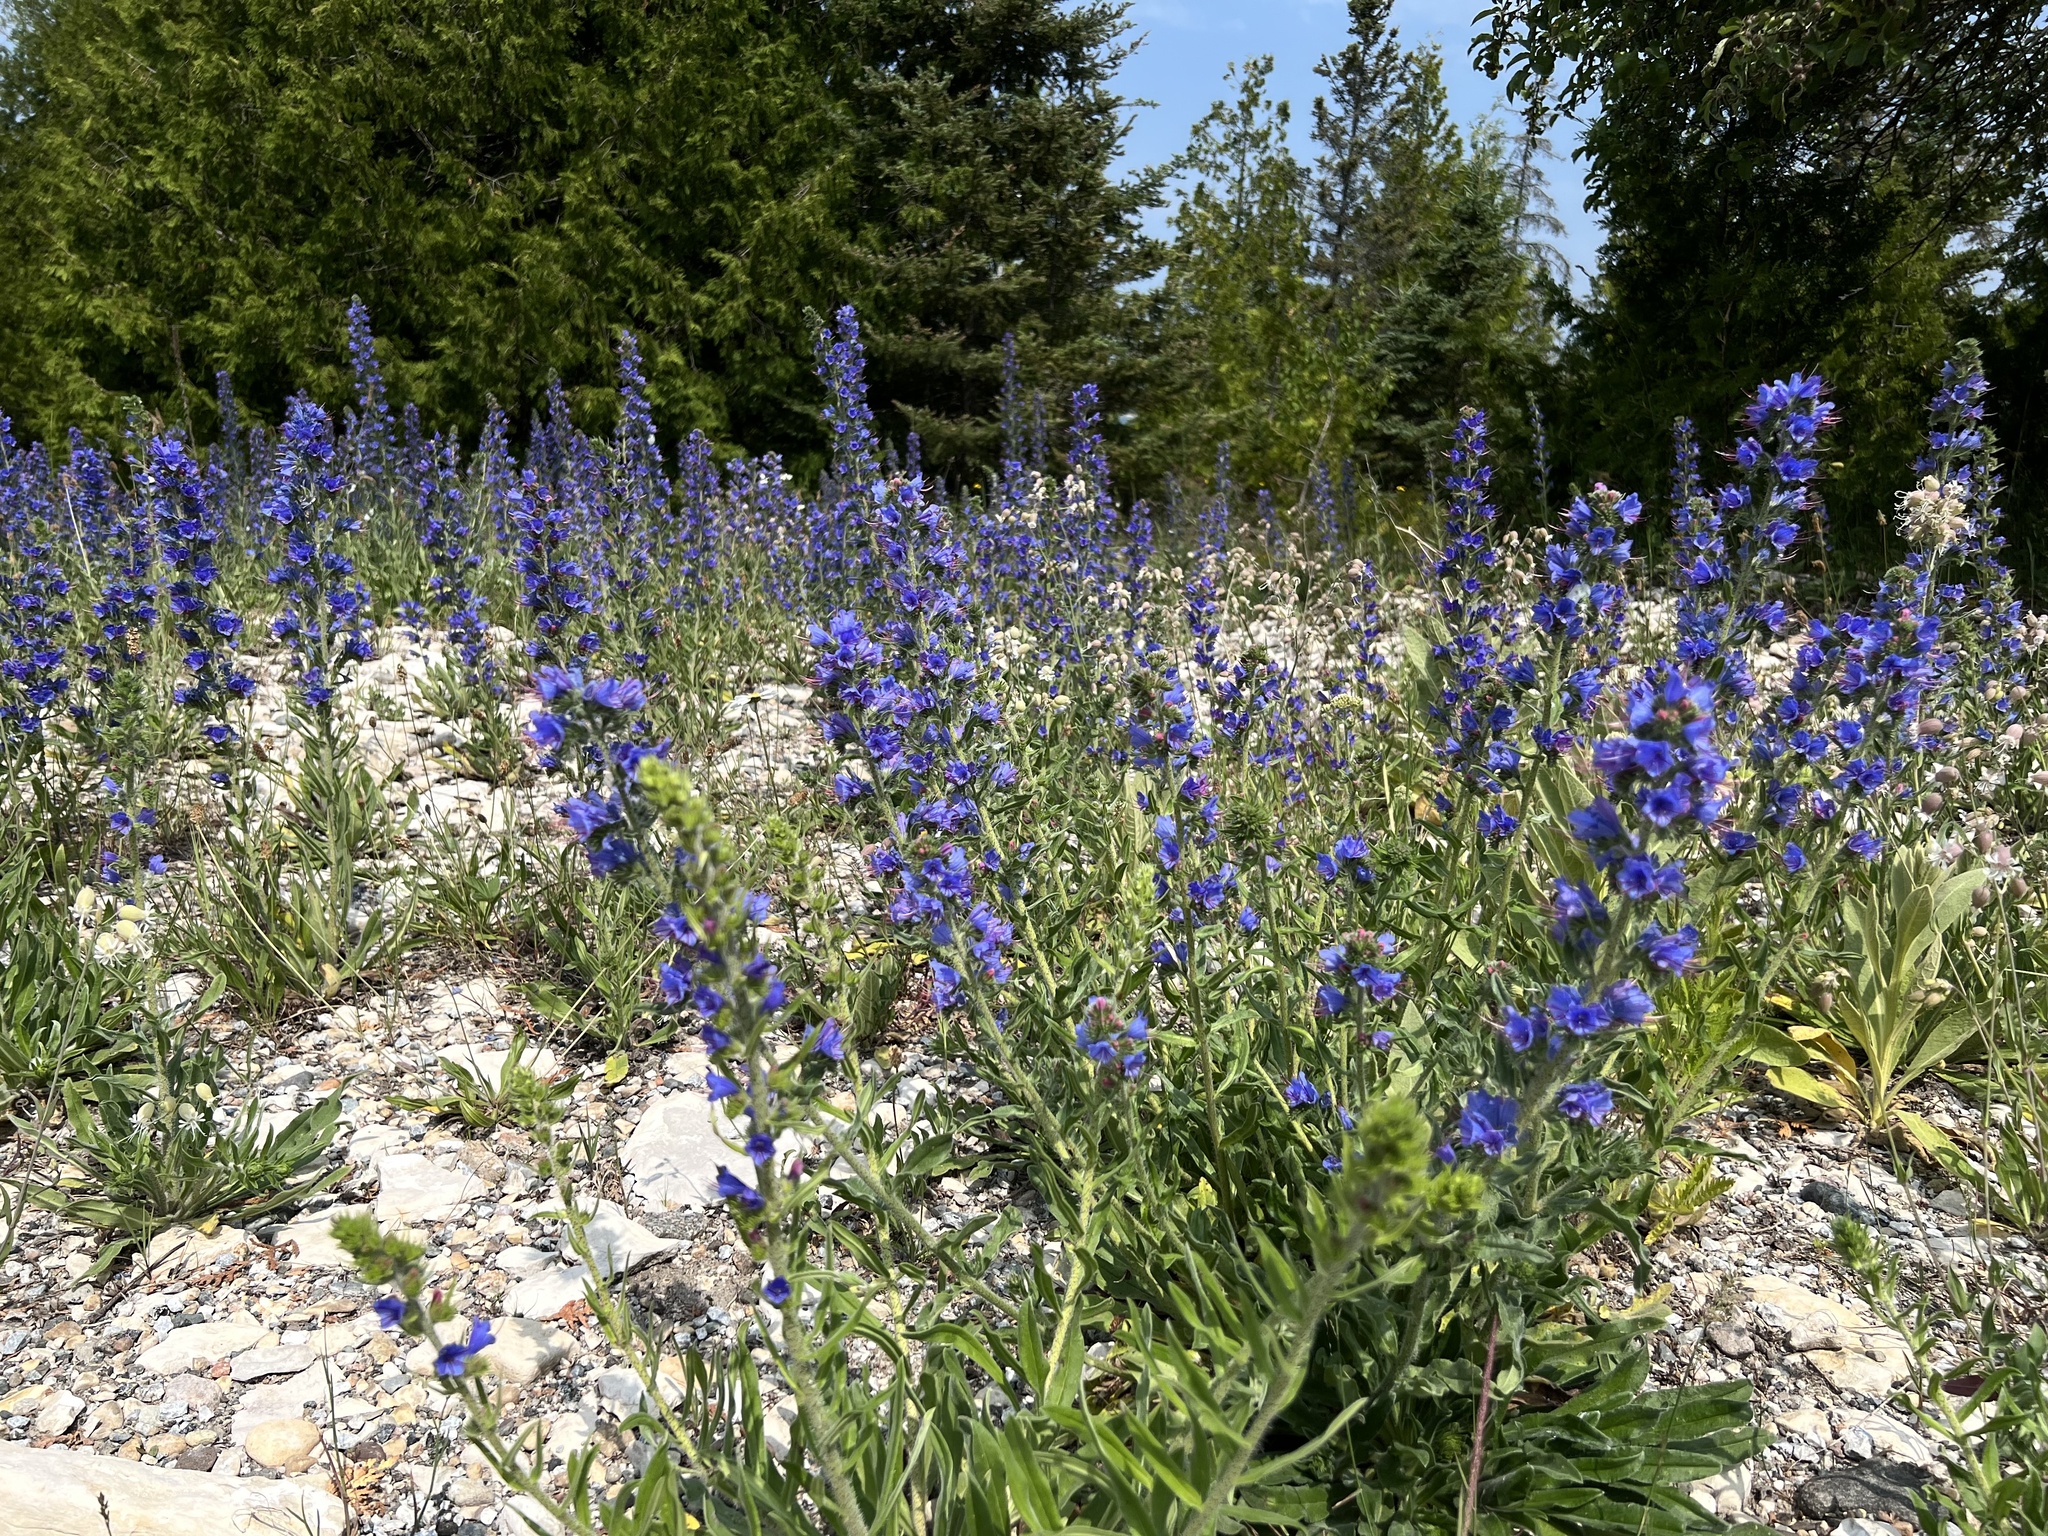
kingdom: Plantae
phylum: Tracheophyta
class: Magnoliopsida
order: Boraginales
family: Boraginaceae
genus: Echium
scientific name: Echium vulgare
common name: Common viper's bugloss
